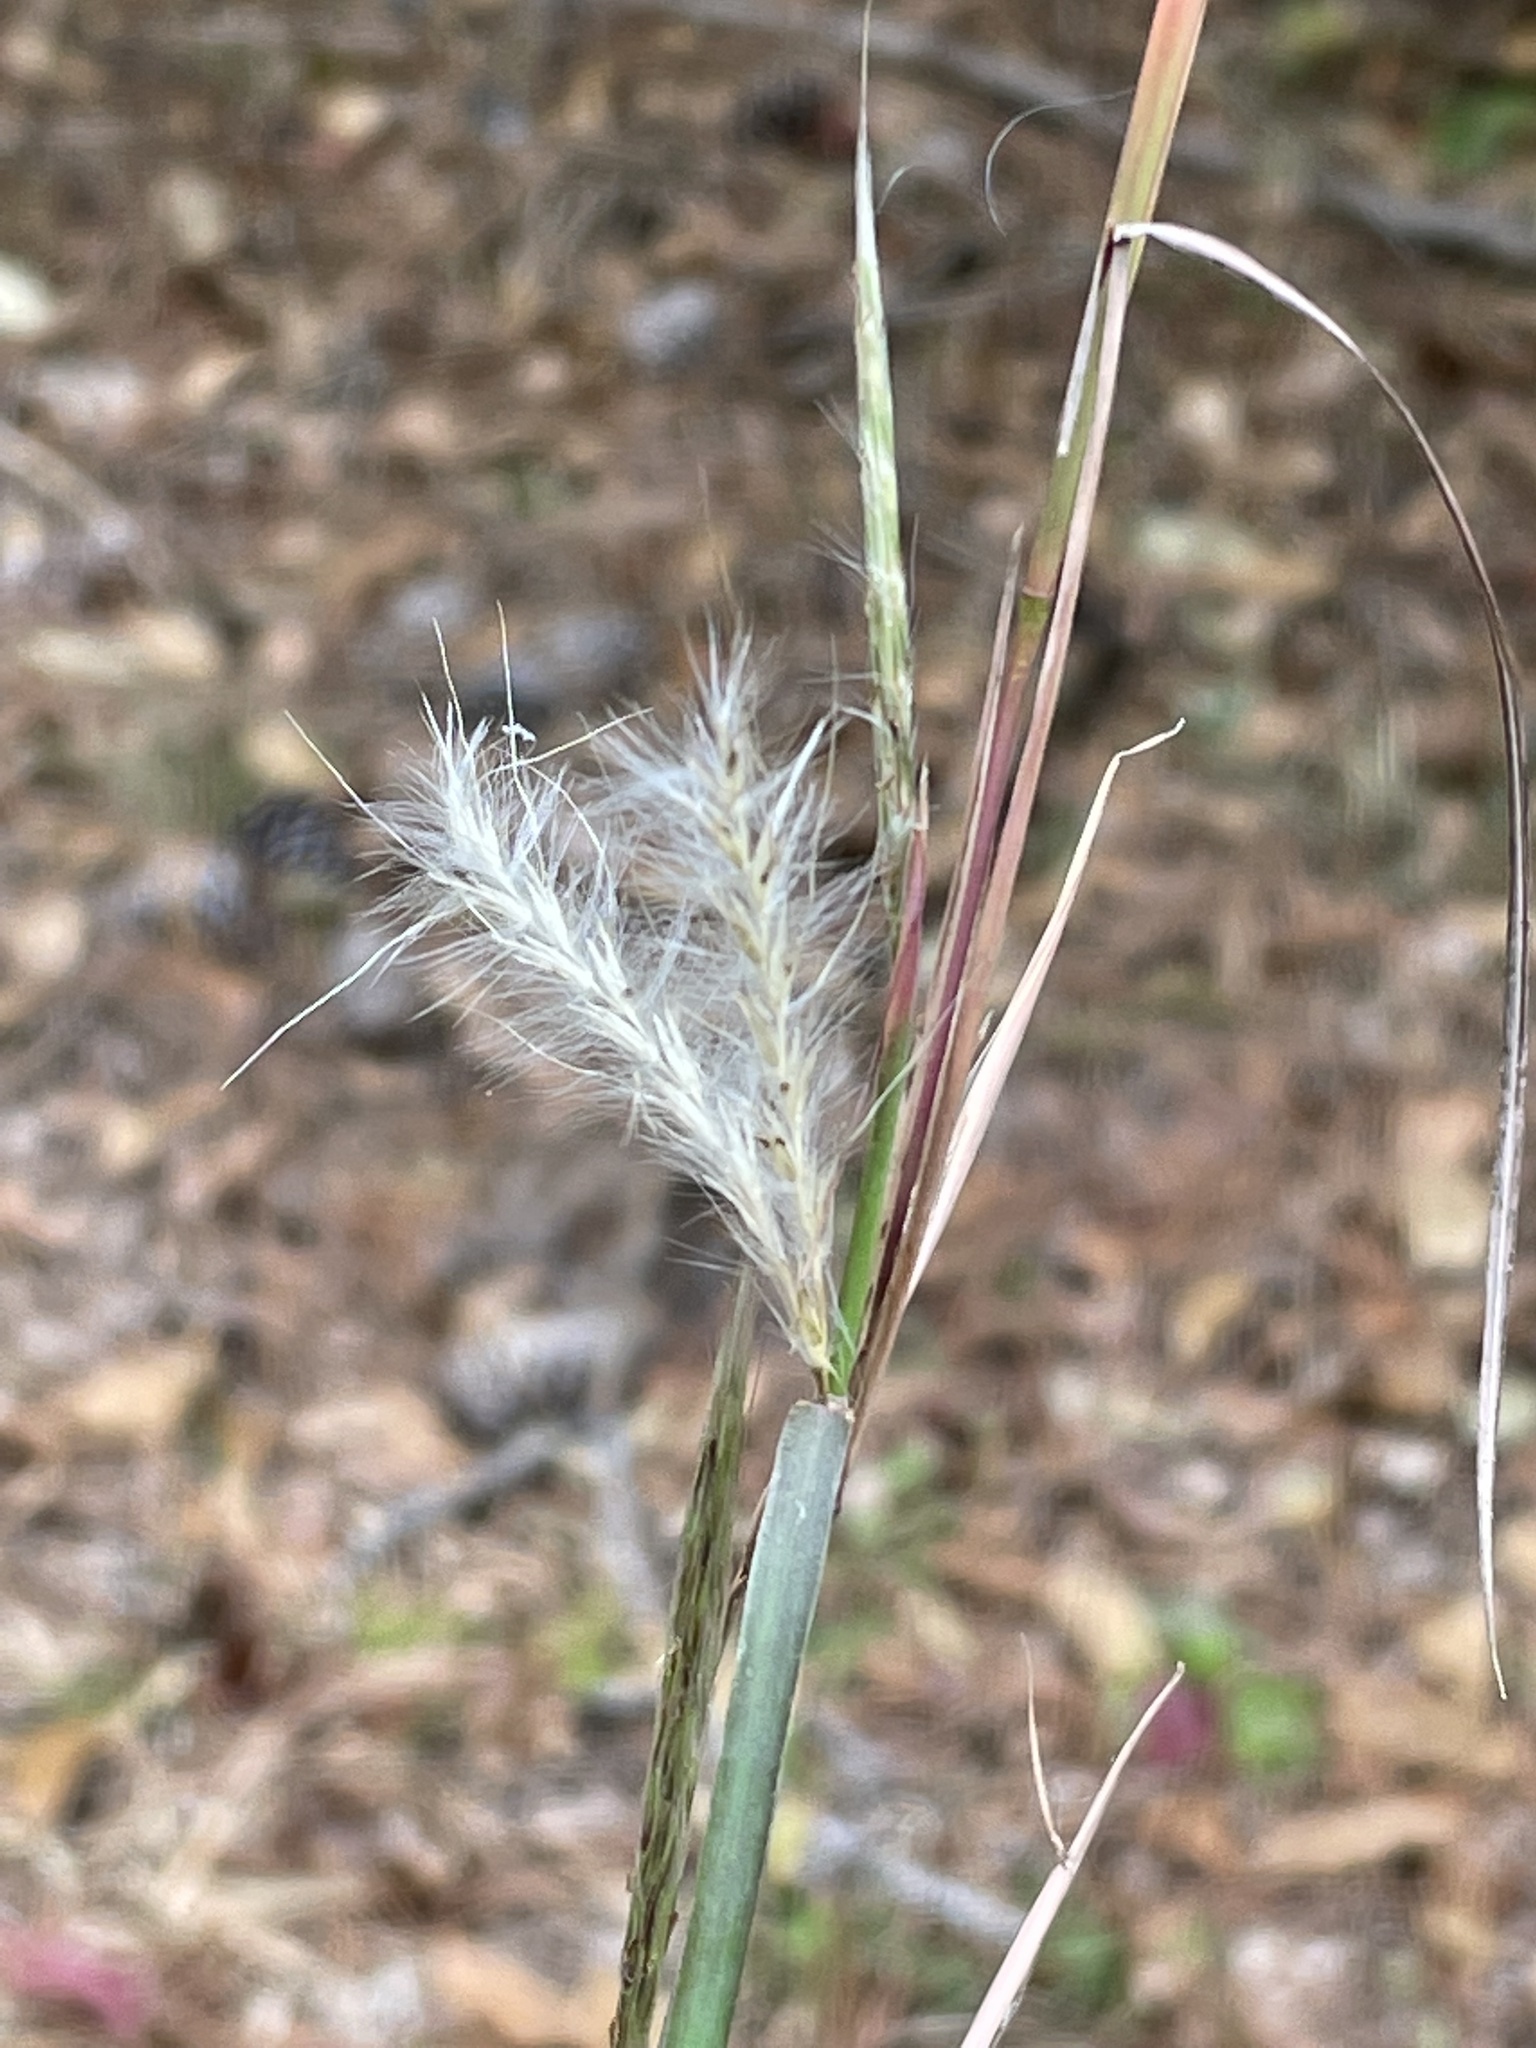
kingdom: Plantae
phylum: Tracheophyta
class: Liliopsida
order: Poales
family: Poaceae
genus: Andropogon
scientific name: Andropogon ternarius
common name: Split bluestem
